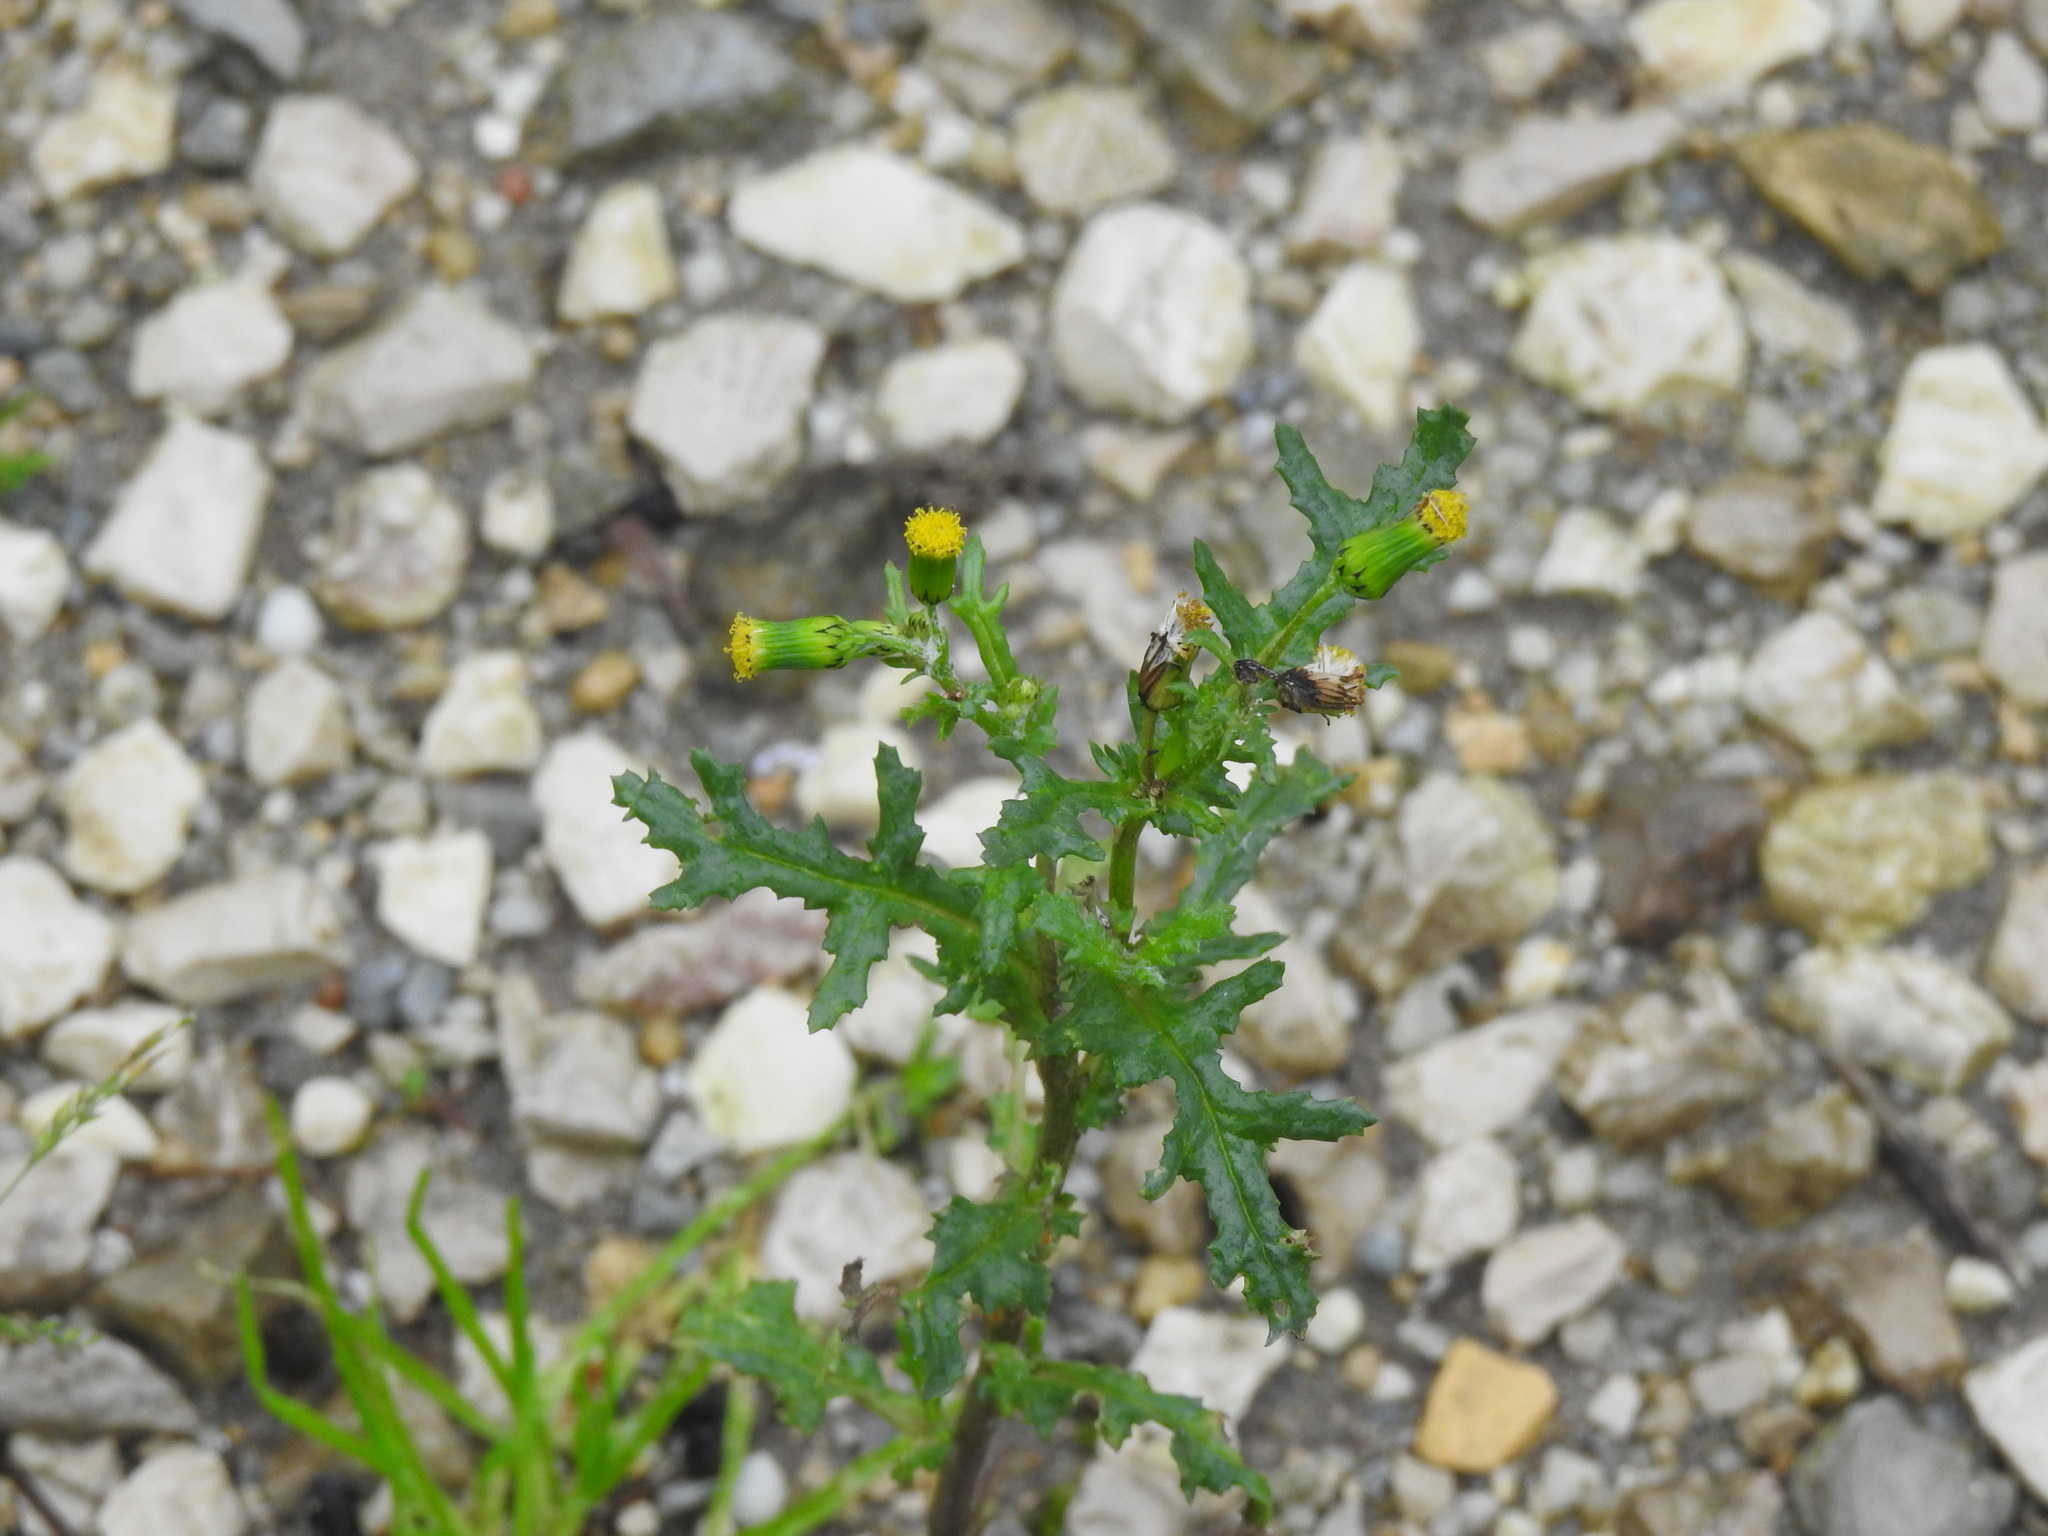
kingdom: Plantae
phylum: Tracheophyta
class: Magnoliopsida
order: Asterales
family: Asteraceae
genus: Senecio
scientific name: Senecio vulgaris
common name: Old-man-in-the-spring
